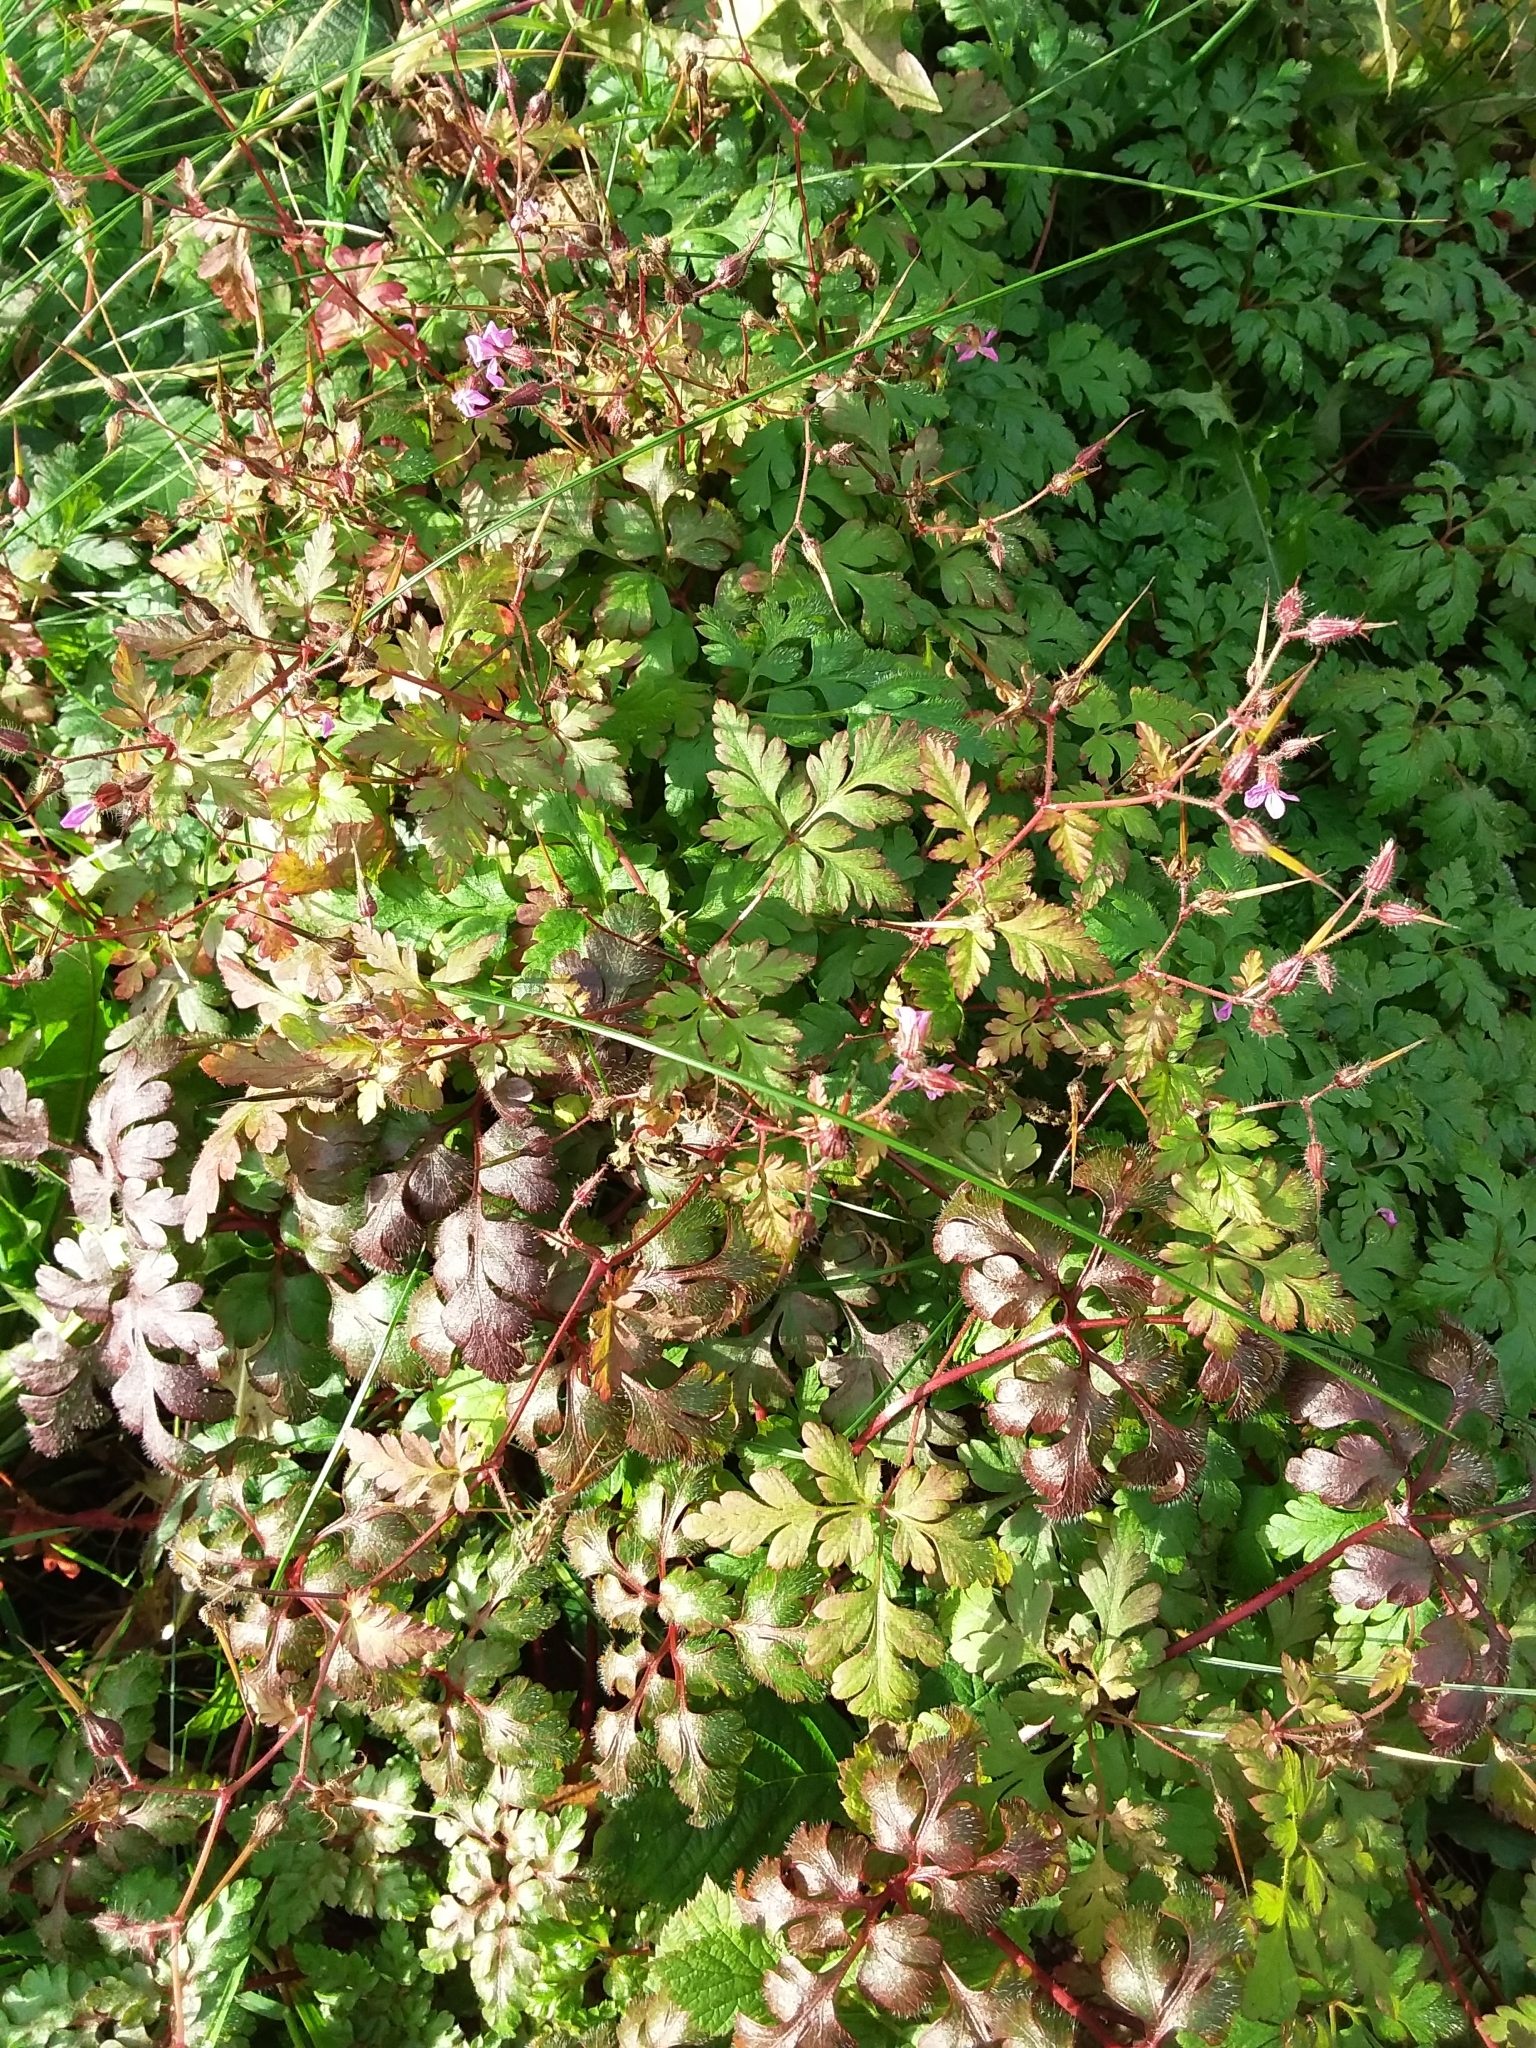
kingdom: Plantae
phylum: Tracheophyta
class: Magnoliopsida
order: Geraniales
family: Geraniaceae
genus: Geranium
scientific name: Geranium robertianum
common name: Herb-robert
